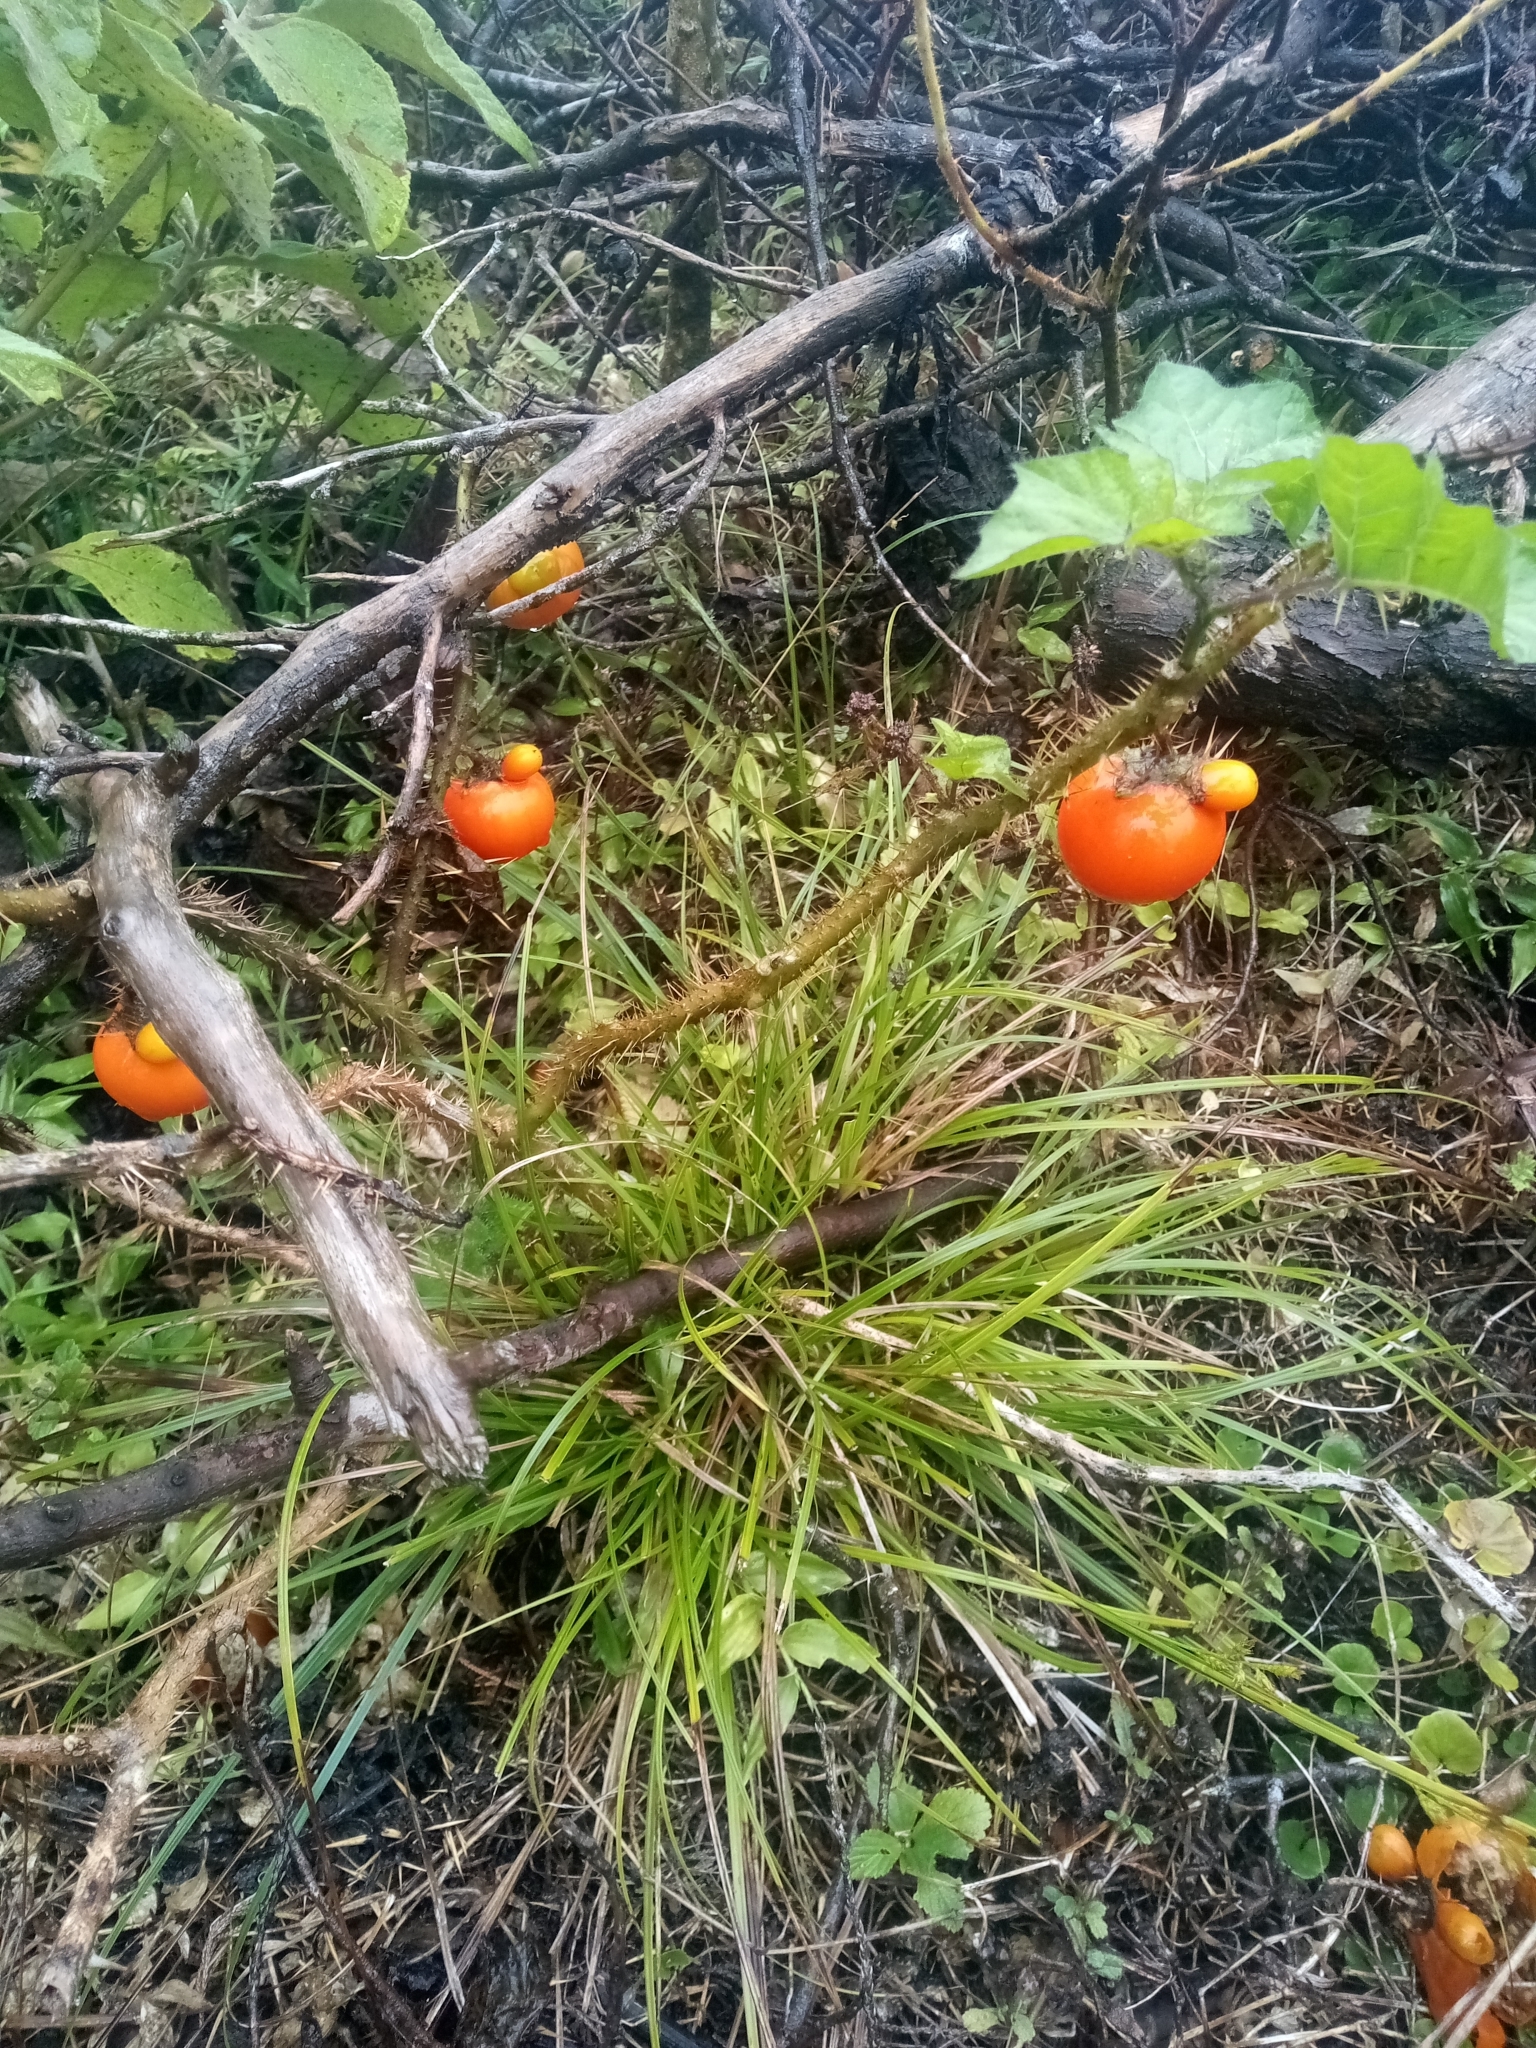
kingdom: Plantae
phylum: Tracheophyta
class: Magnoliopsida
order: Solanales
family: Solanaceae
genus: Solanum
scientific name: Solanum capsicoides
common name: Cockroach berry
